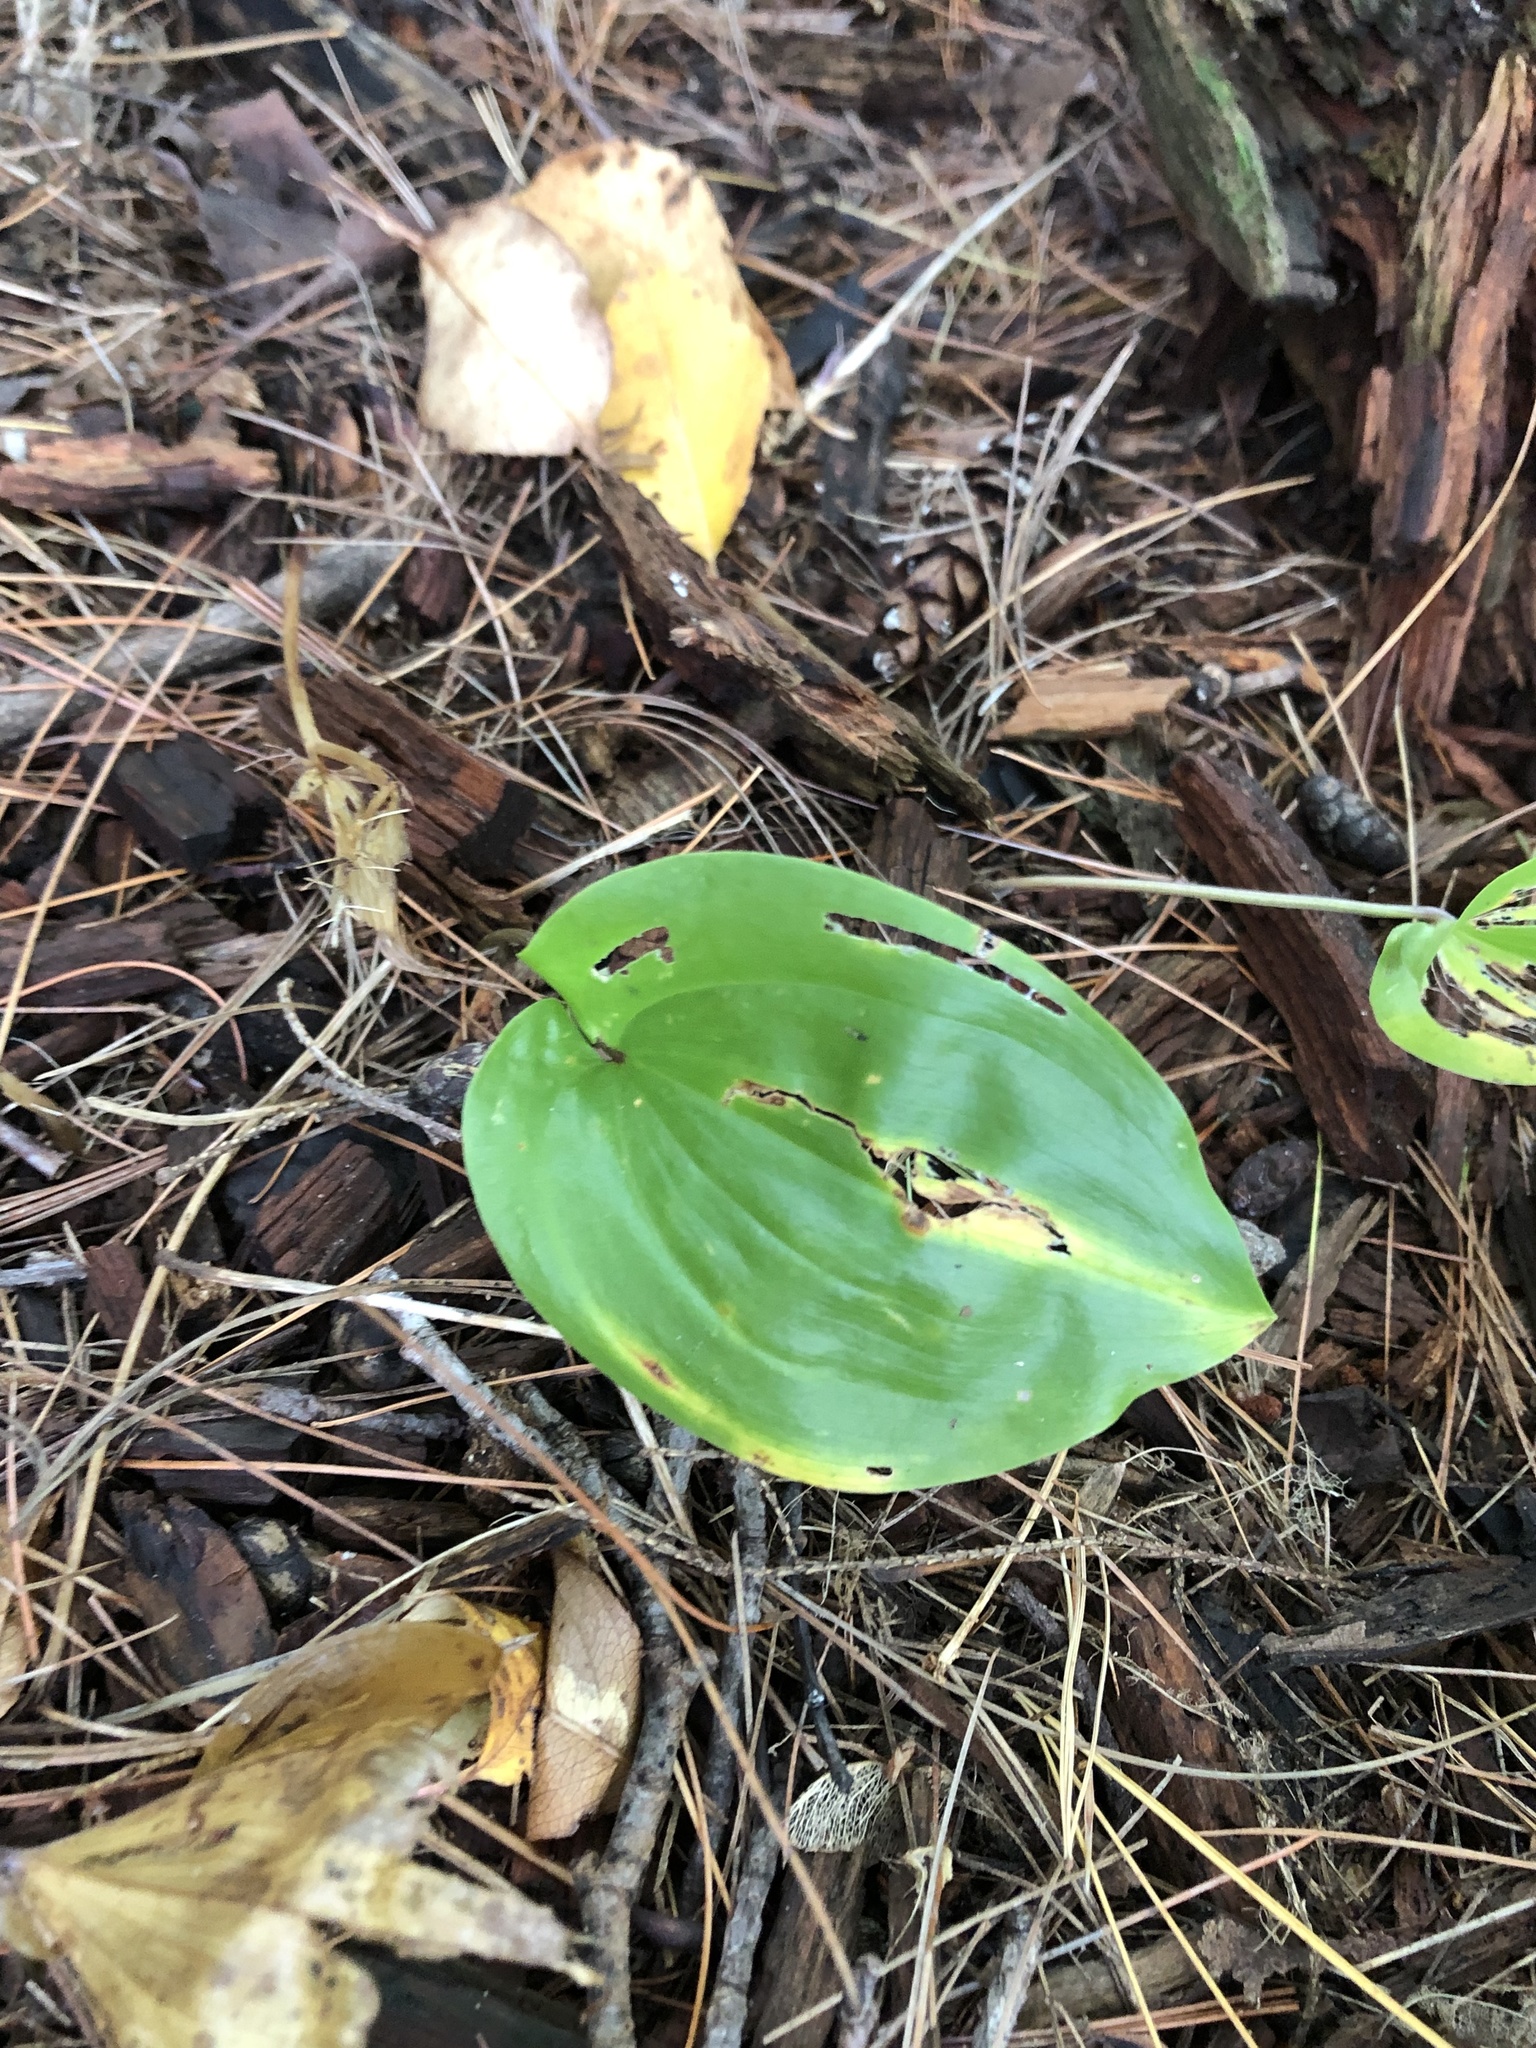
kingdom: Plantae
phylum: Tracheophyta
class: Liliopsida
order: Asparagales
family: Asparagaceae
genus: Maianthemum
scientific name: Maianthemum canadense
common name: False lily-of-the-valley
